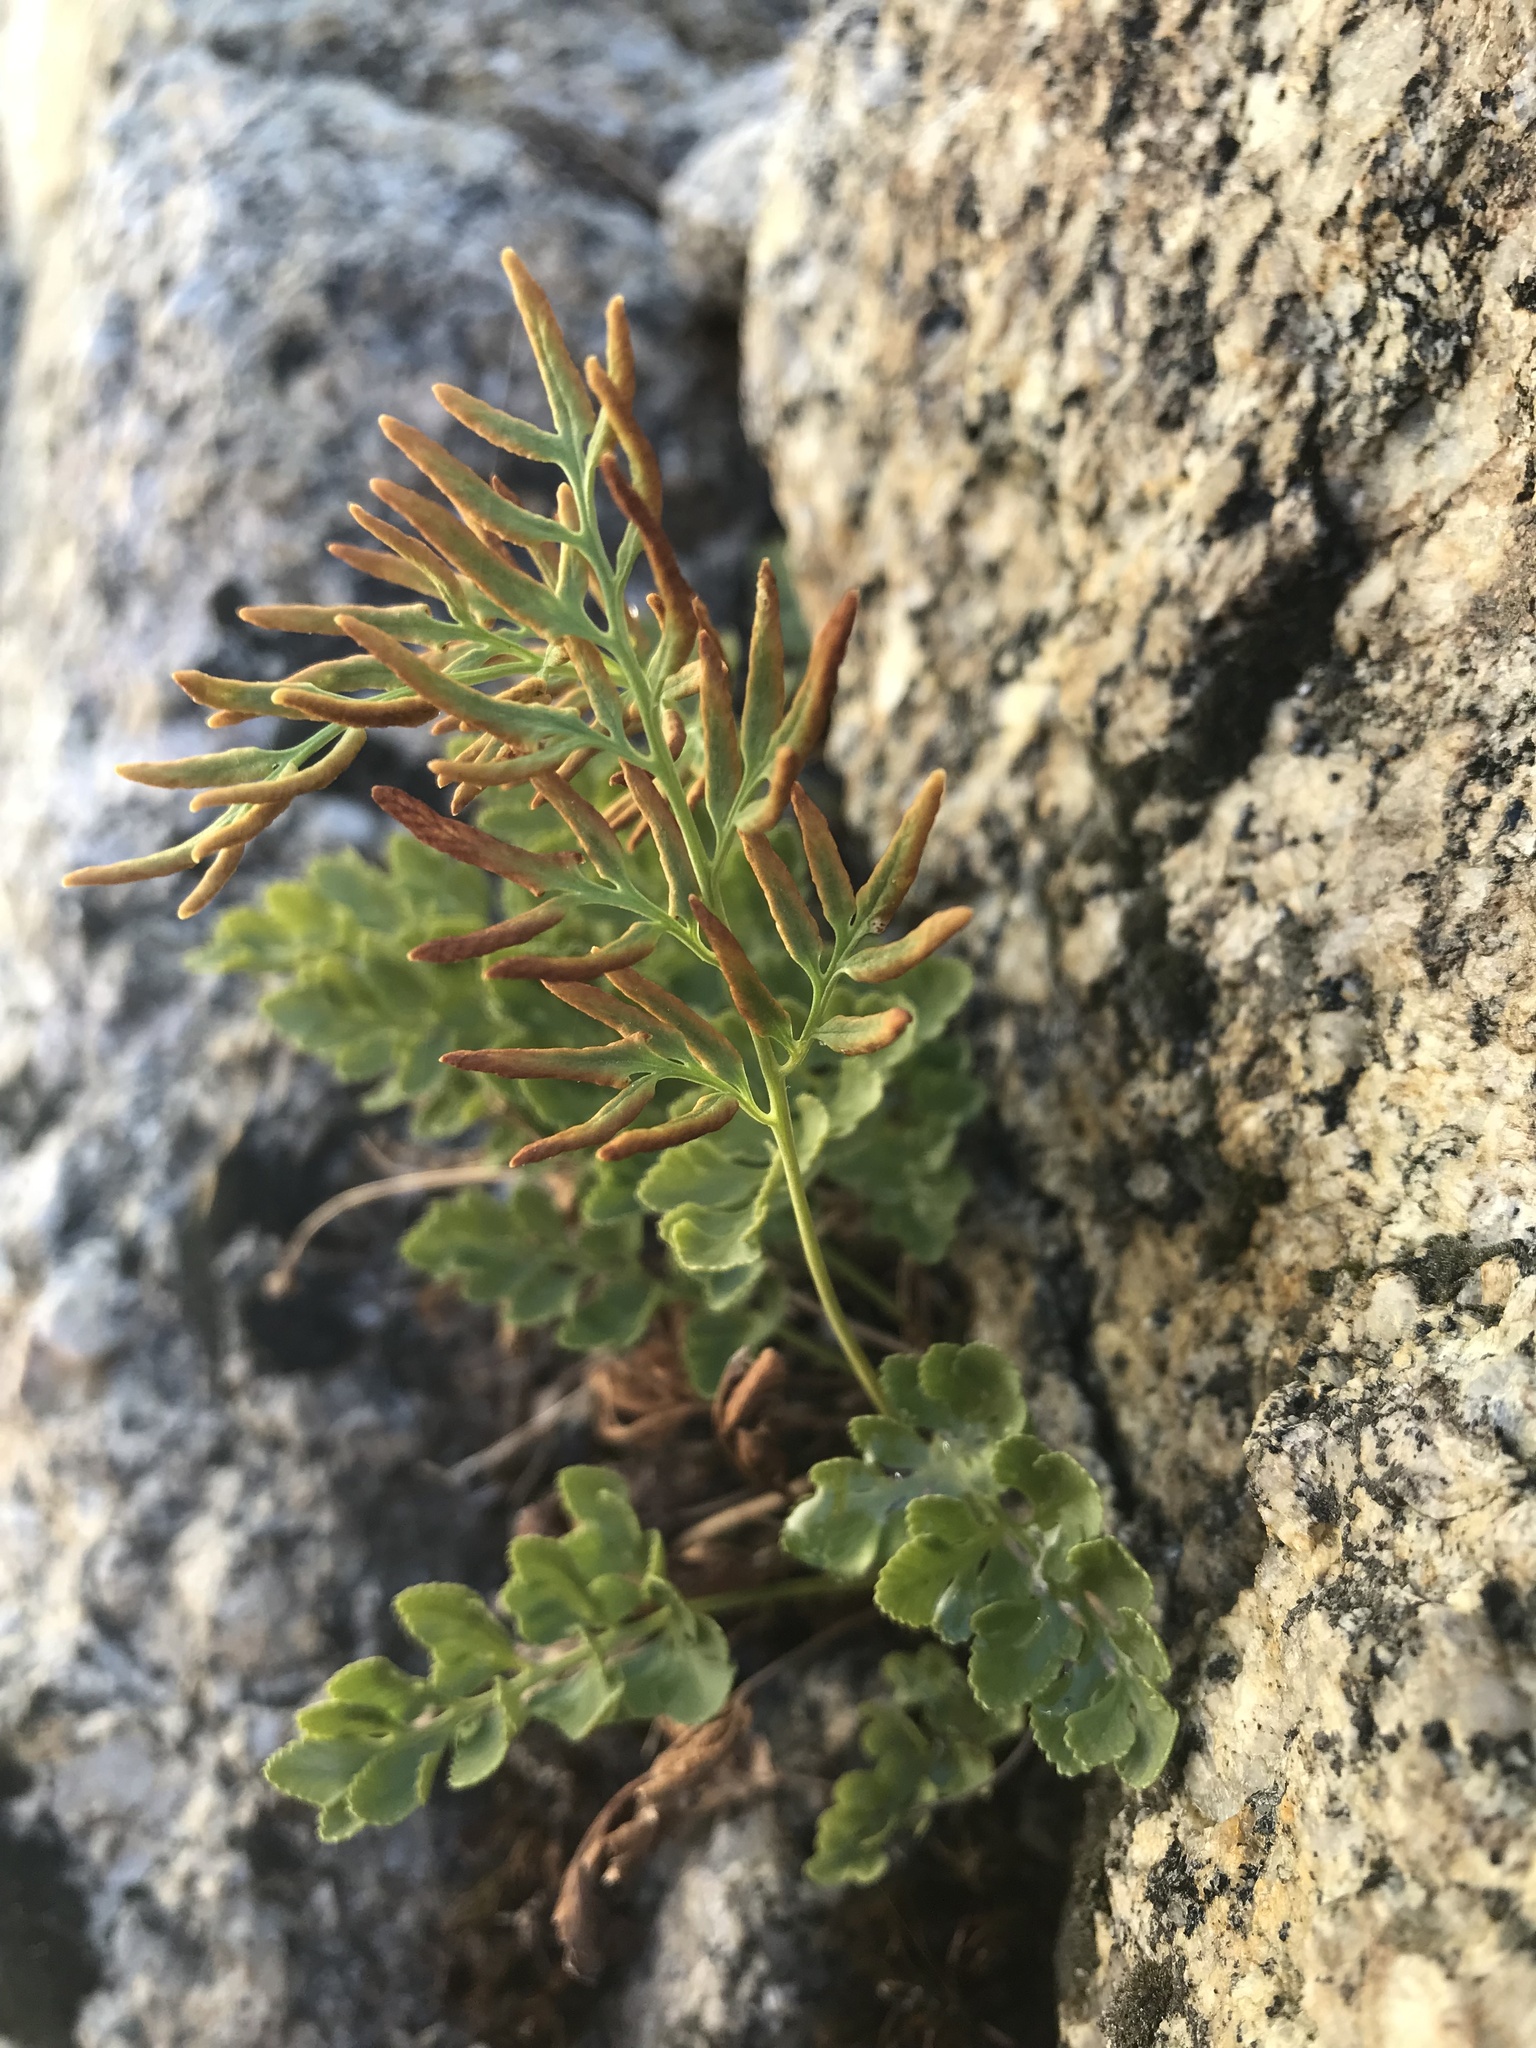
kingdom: Plantae
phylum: Tracheophyta
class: Polypodiopsida
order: Polypodiales
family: Pteridaceae
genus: Cryptogramma
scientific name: Cryptogramma acrostichoides
